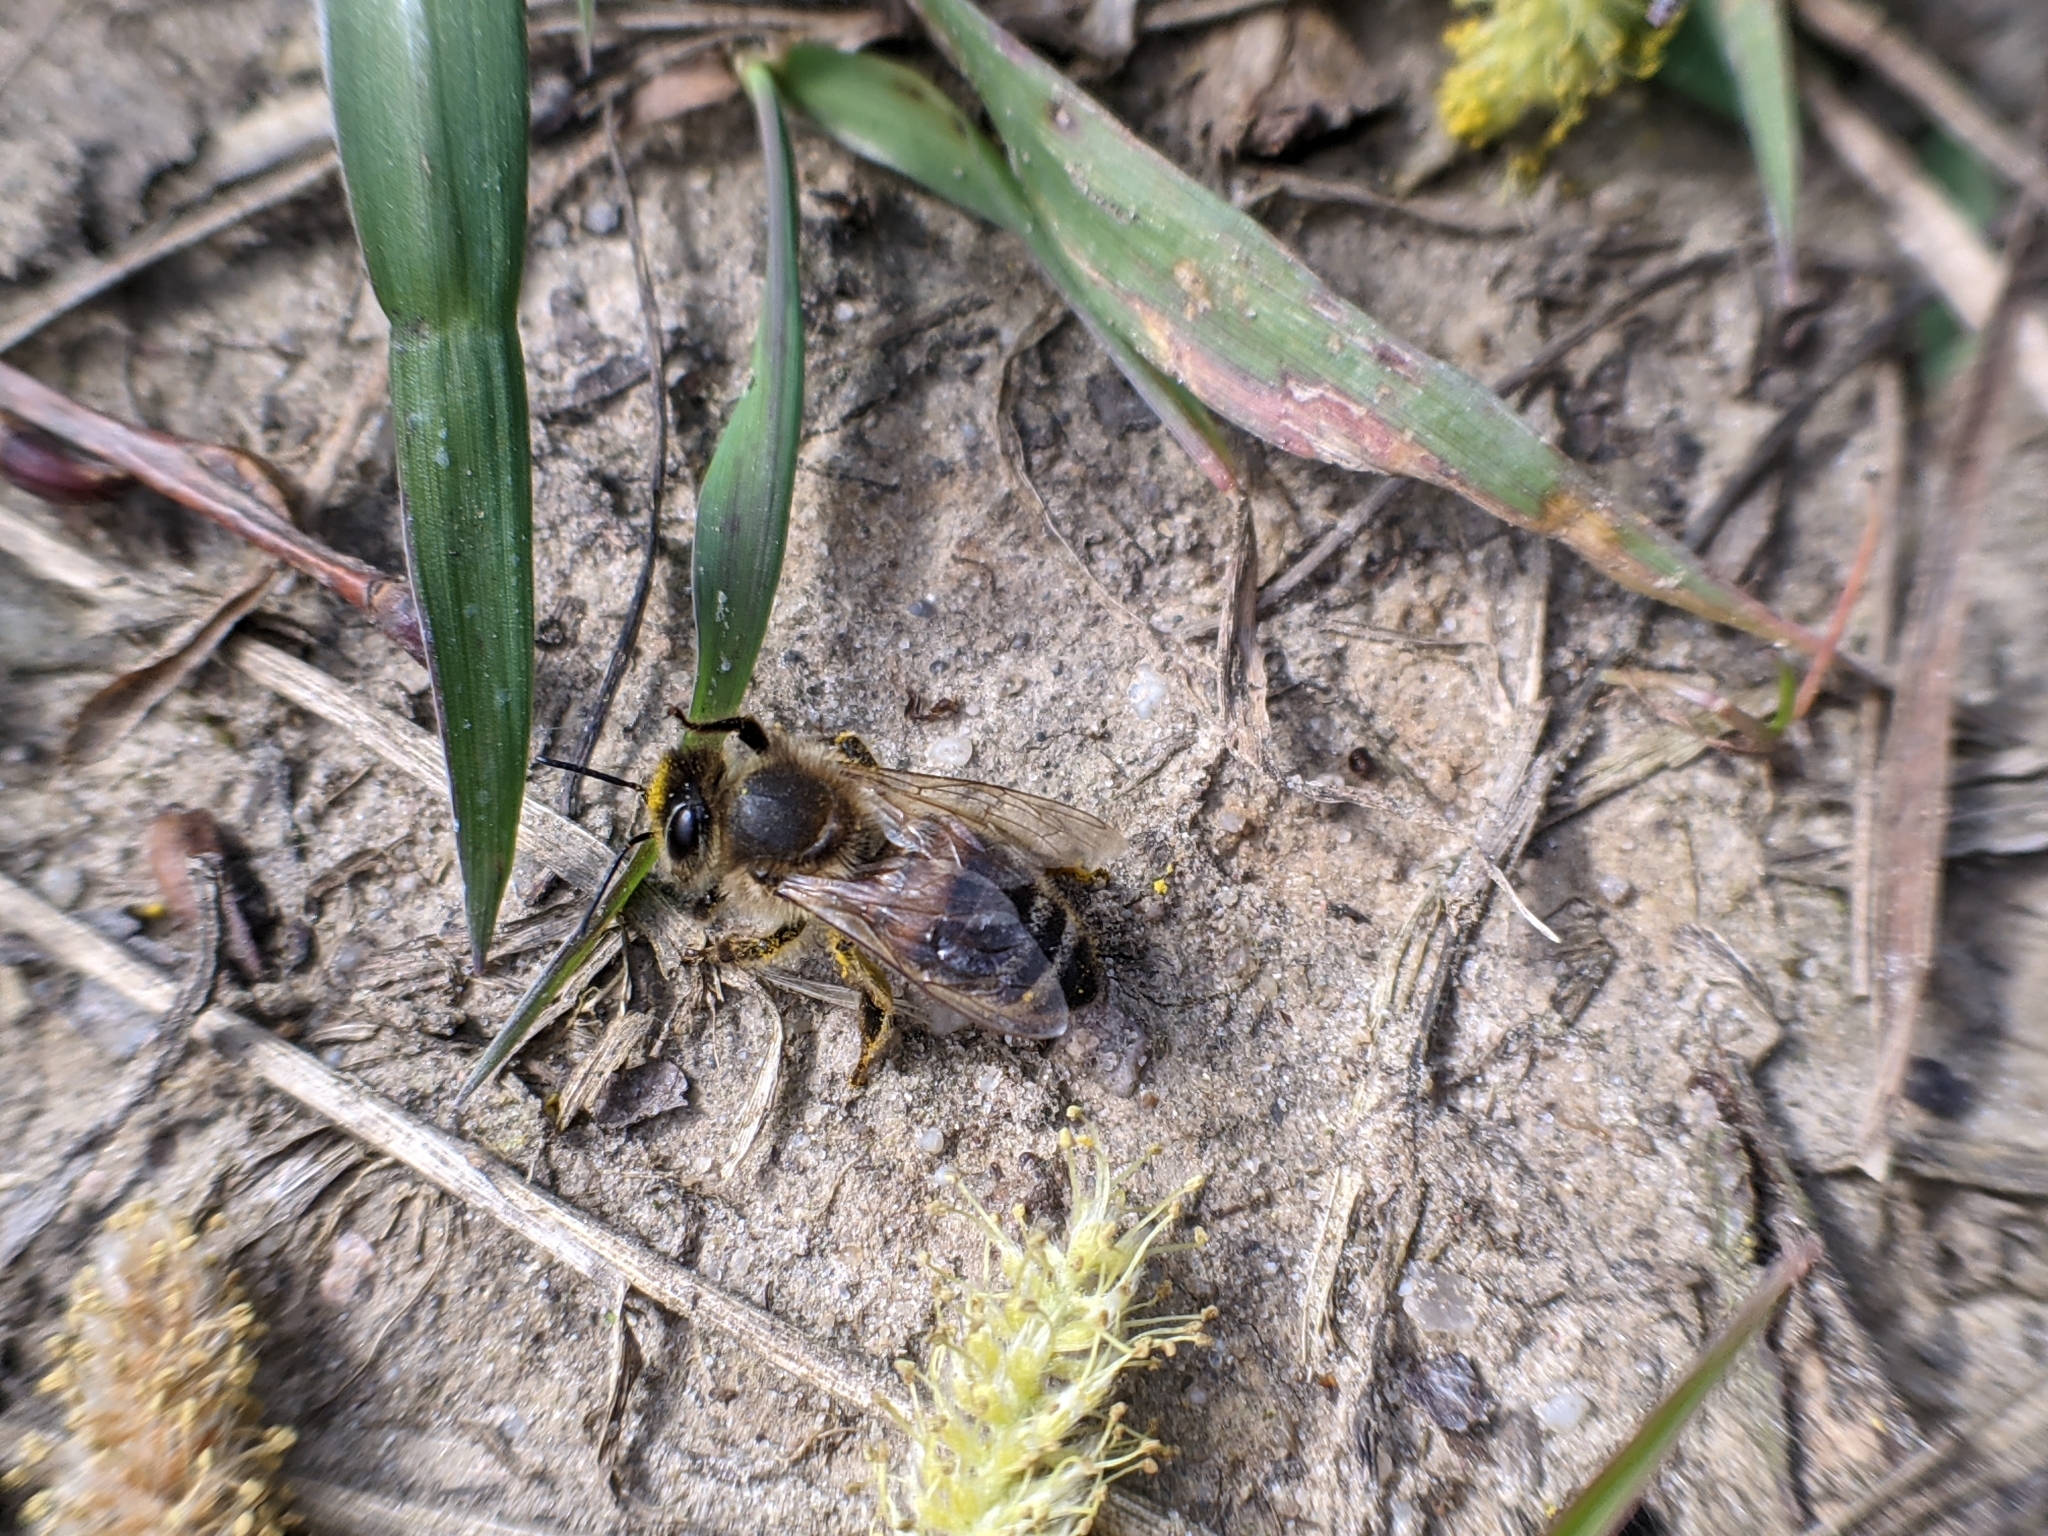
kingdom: Animalia
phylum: Arthropoda
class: Insecta
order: Hymenoptera
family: Apidae
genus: Apis
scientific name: Apis mellifera
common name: Honey bee
